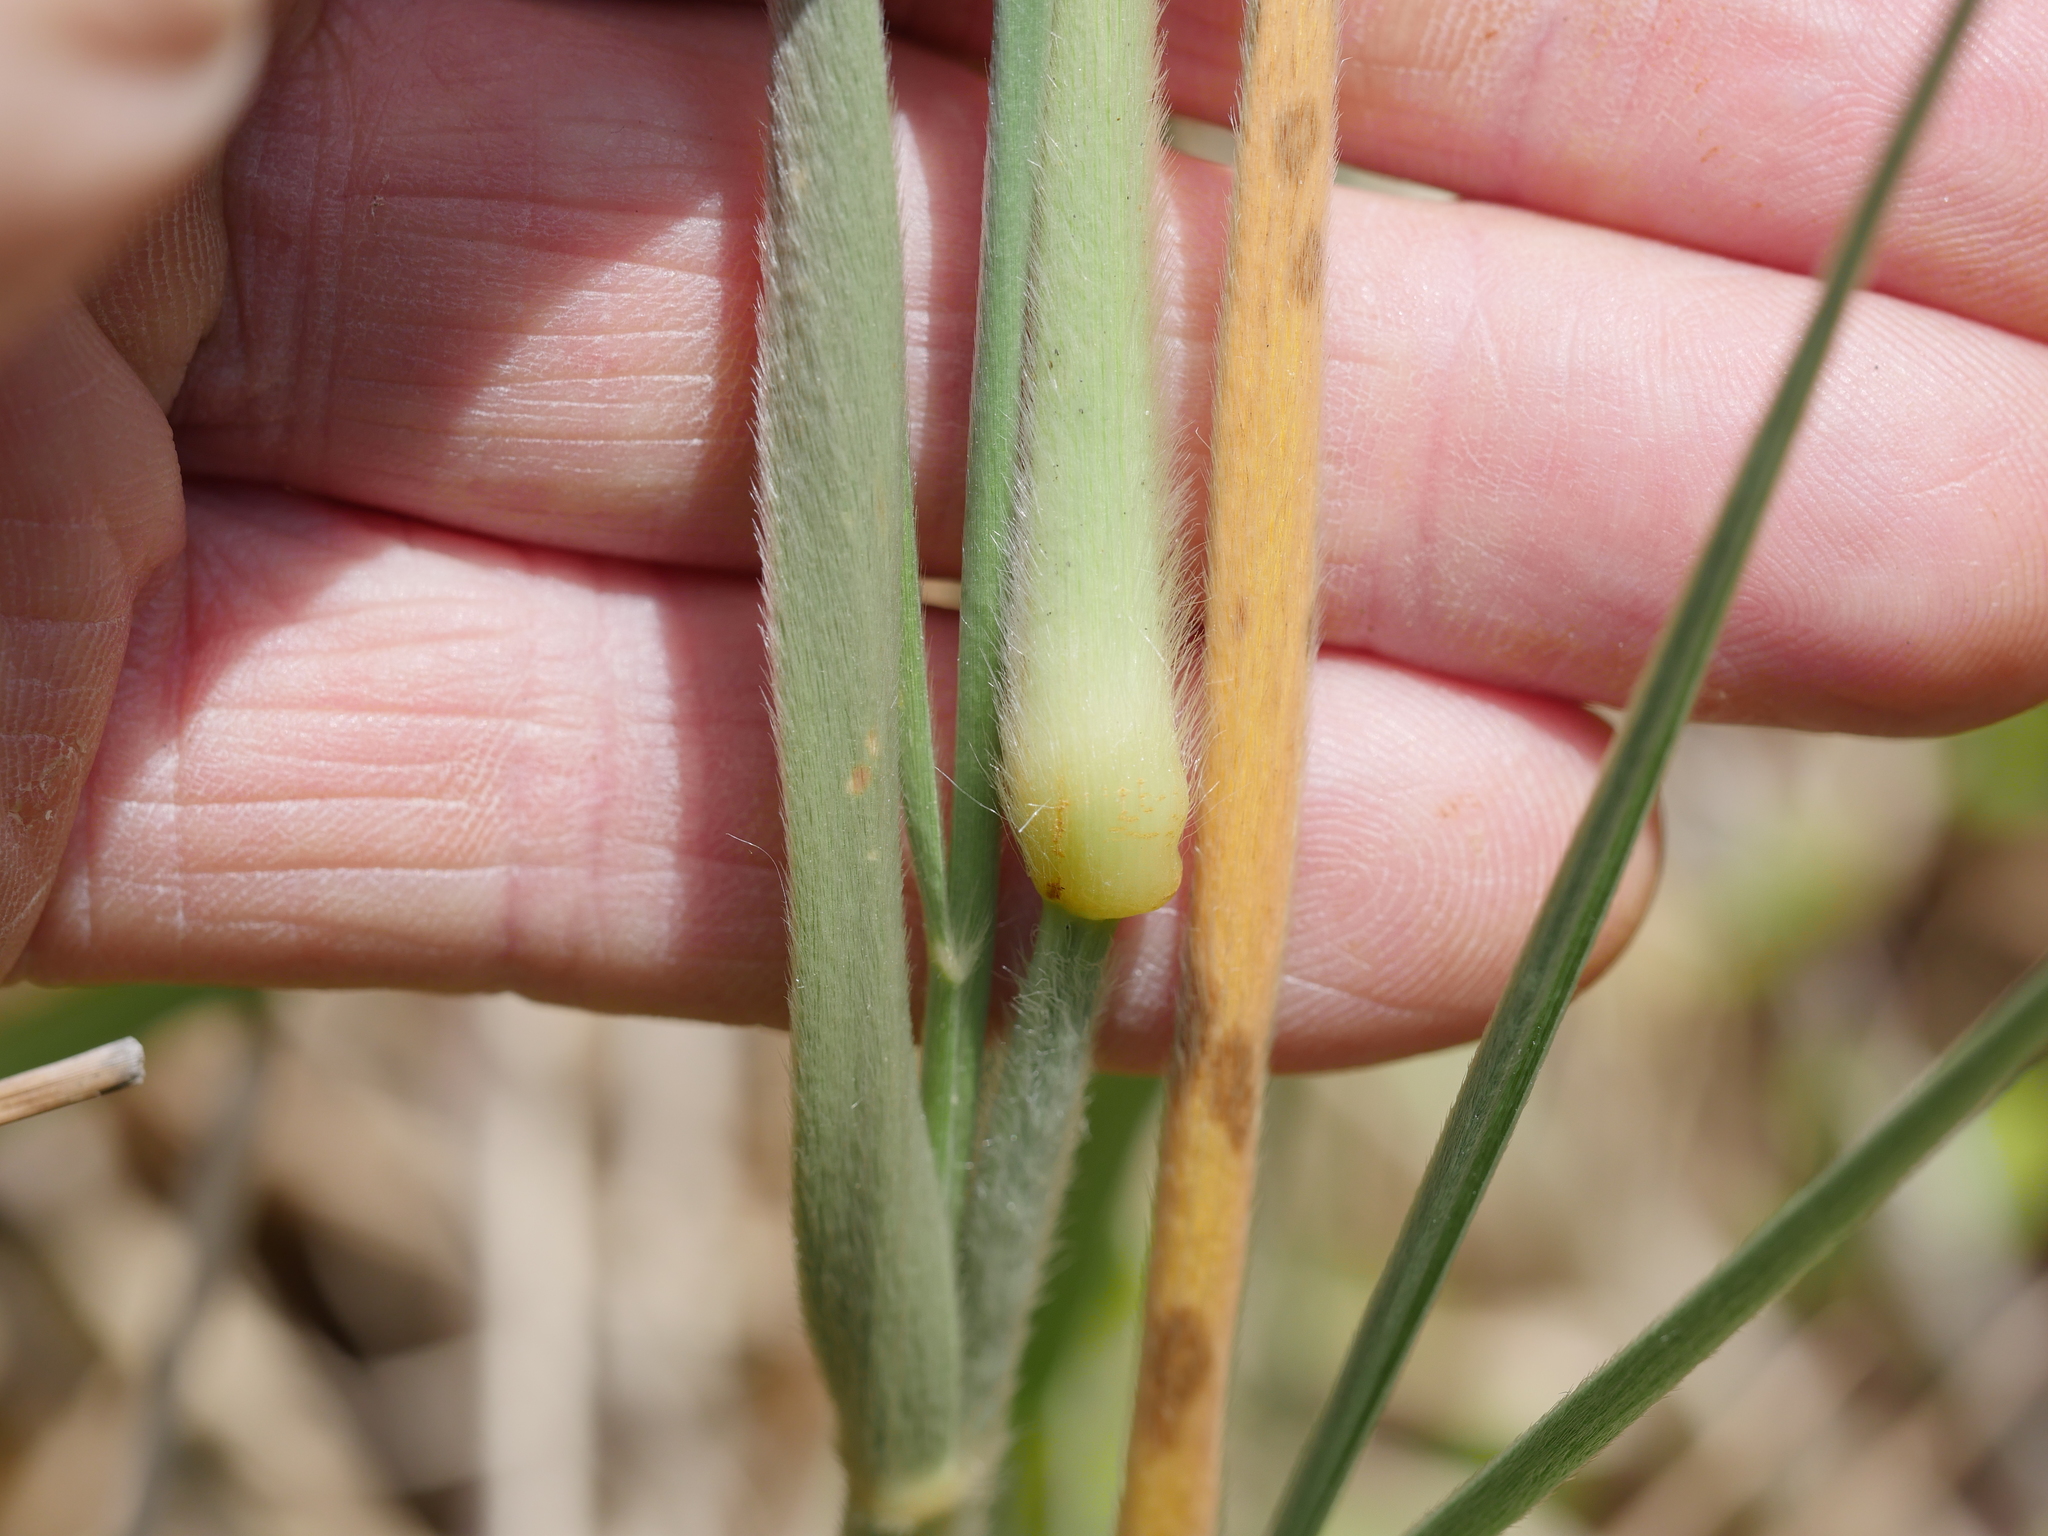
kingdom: Plantae
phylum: Tracheophyta
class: Liliopsida
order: Poales
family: Poaceae
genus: Spinifex
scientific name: Spinifex sericeus
